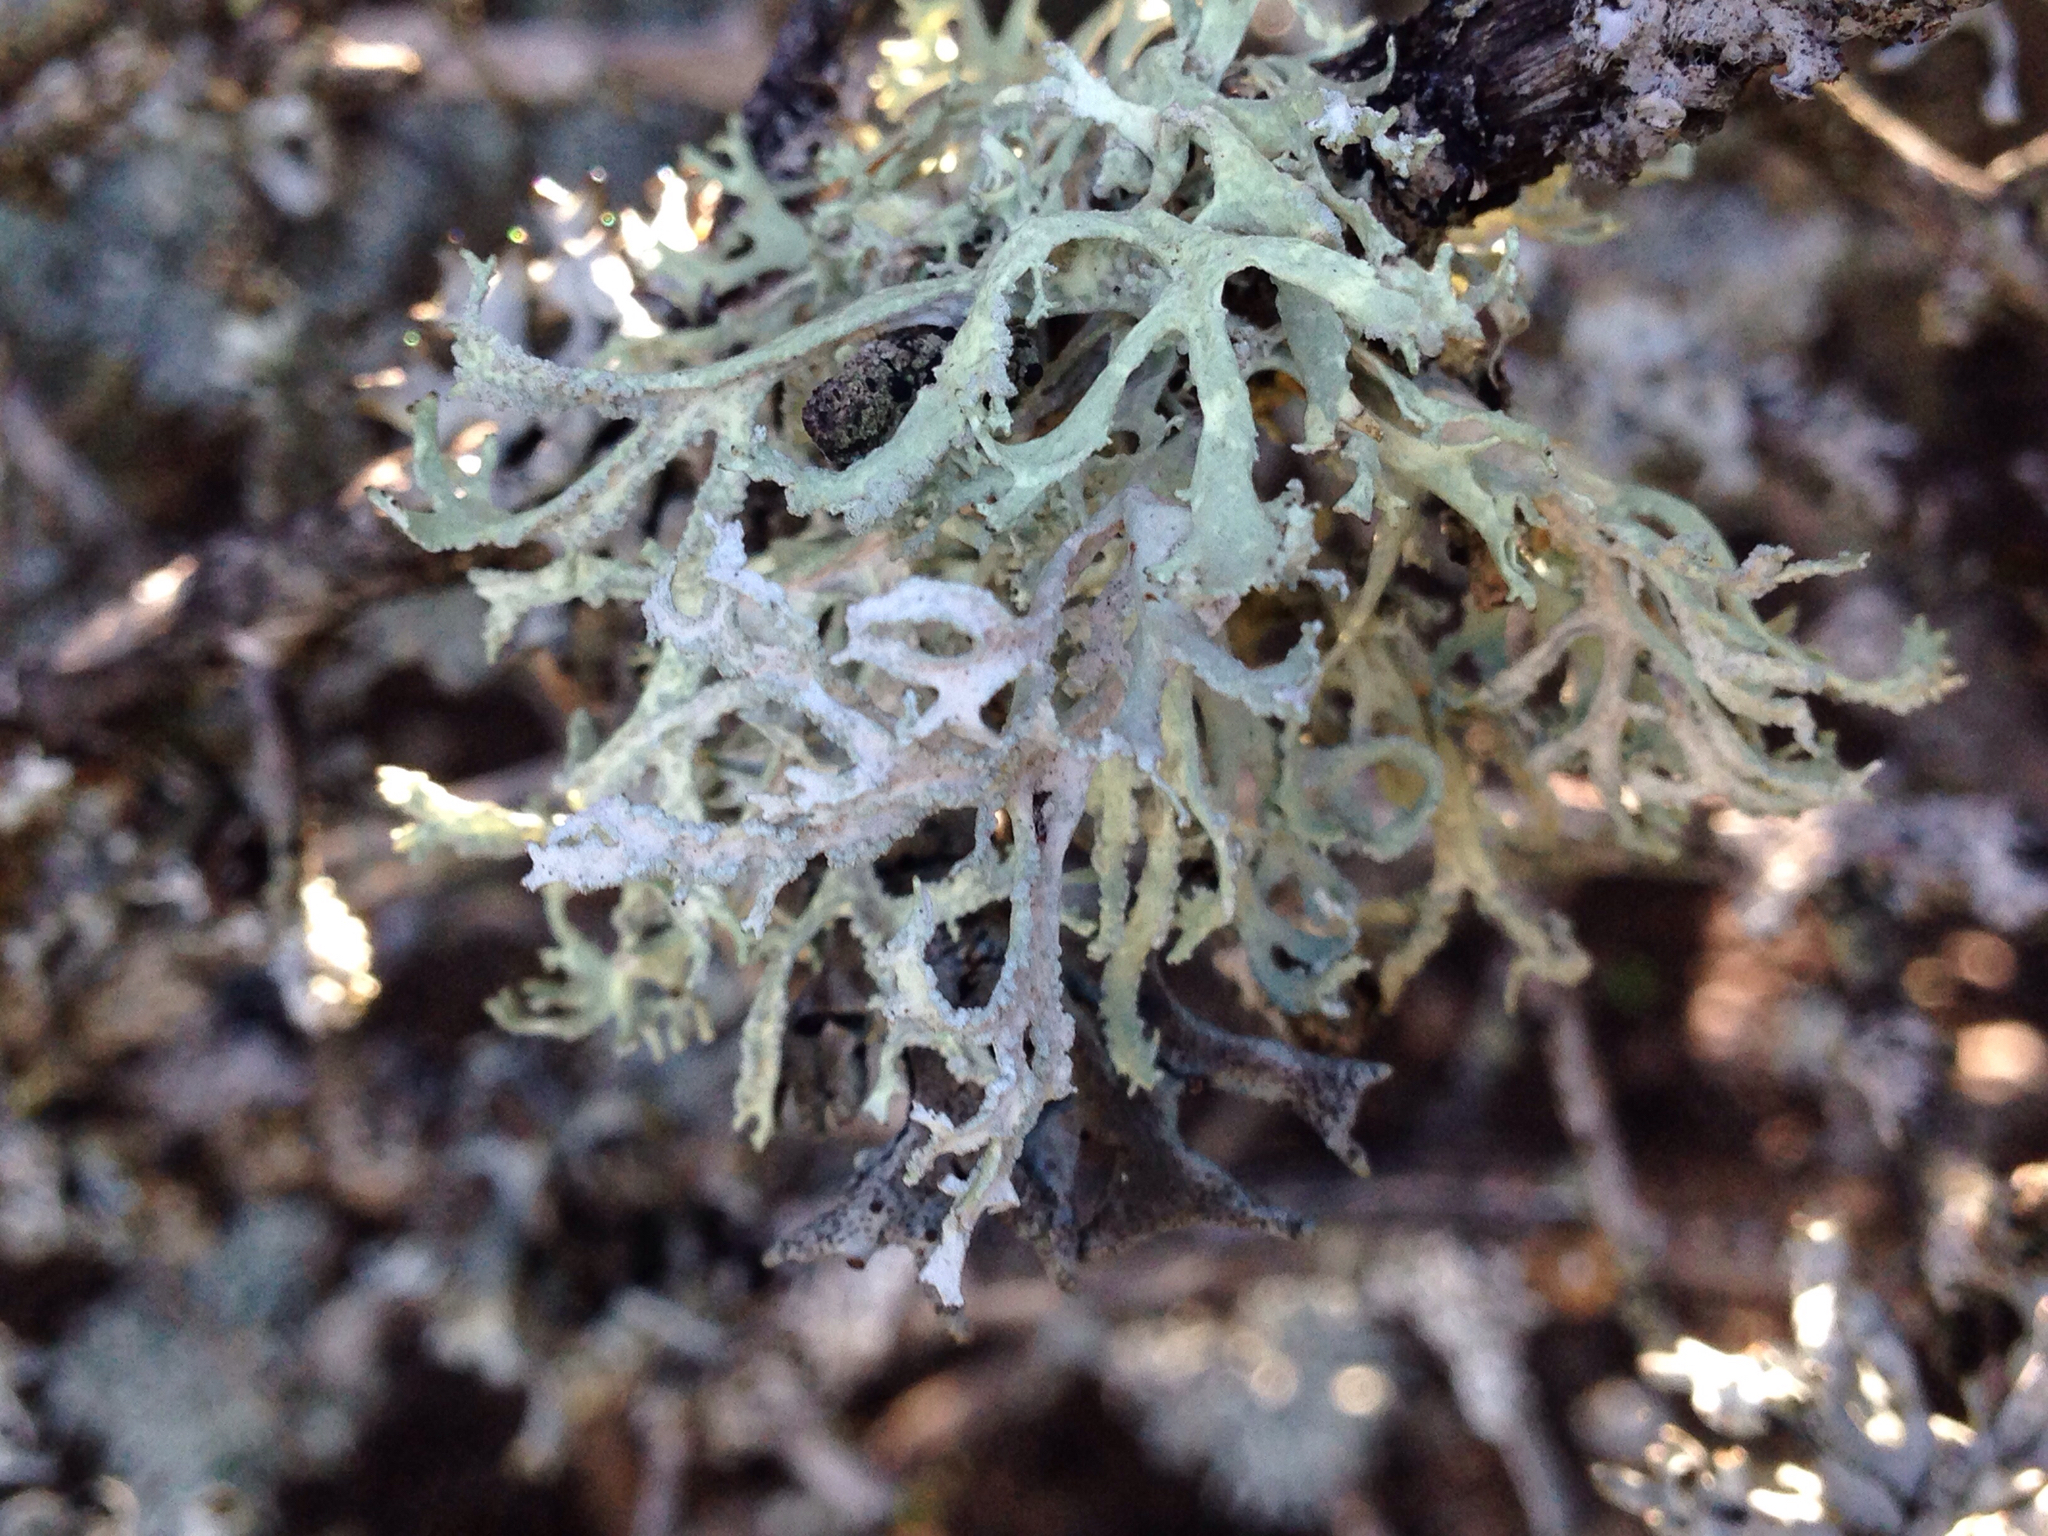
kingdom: Fungi
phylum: Ascomycota
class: Lecanoromycetes
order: Lecanorales
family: Parmeliaceae
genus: Evernia
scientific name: Evernia prunastri
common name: Oak moss
